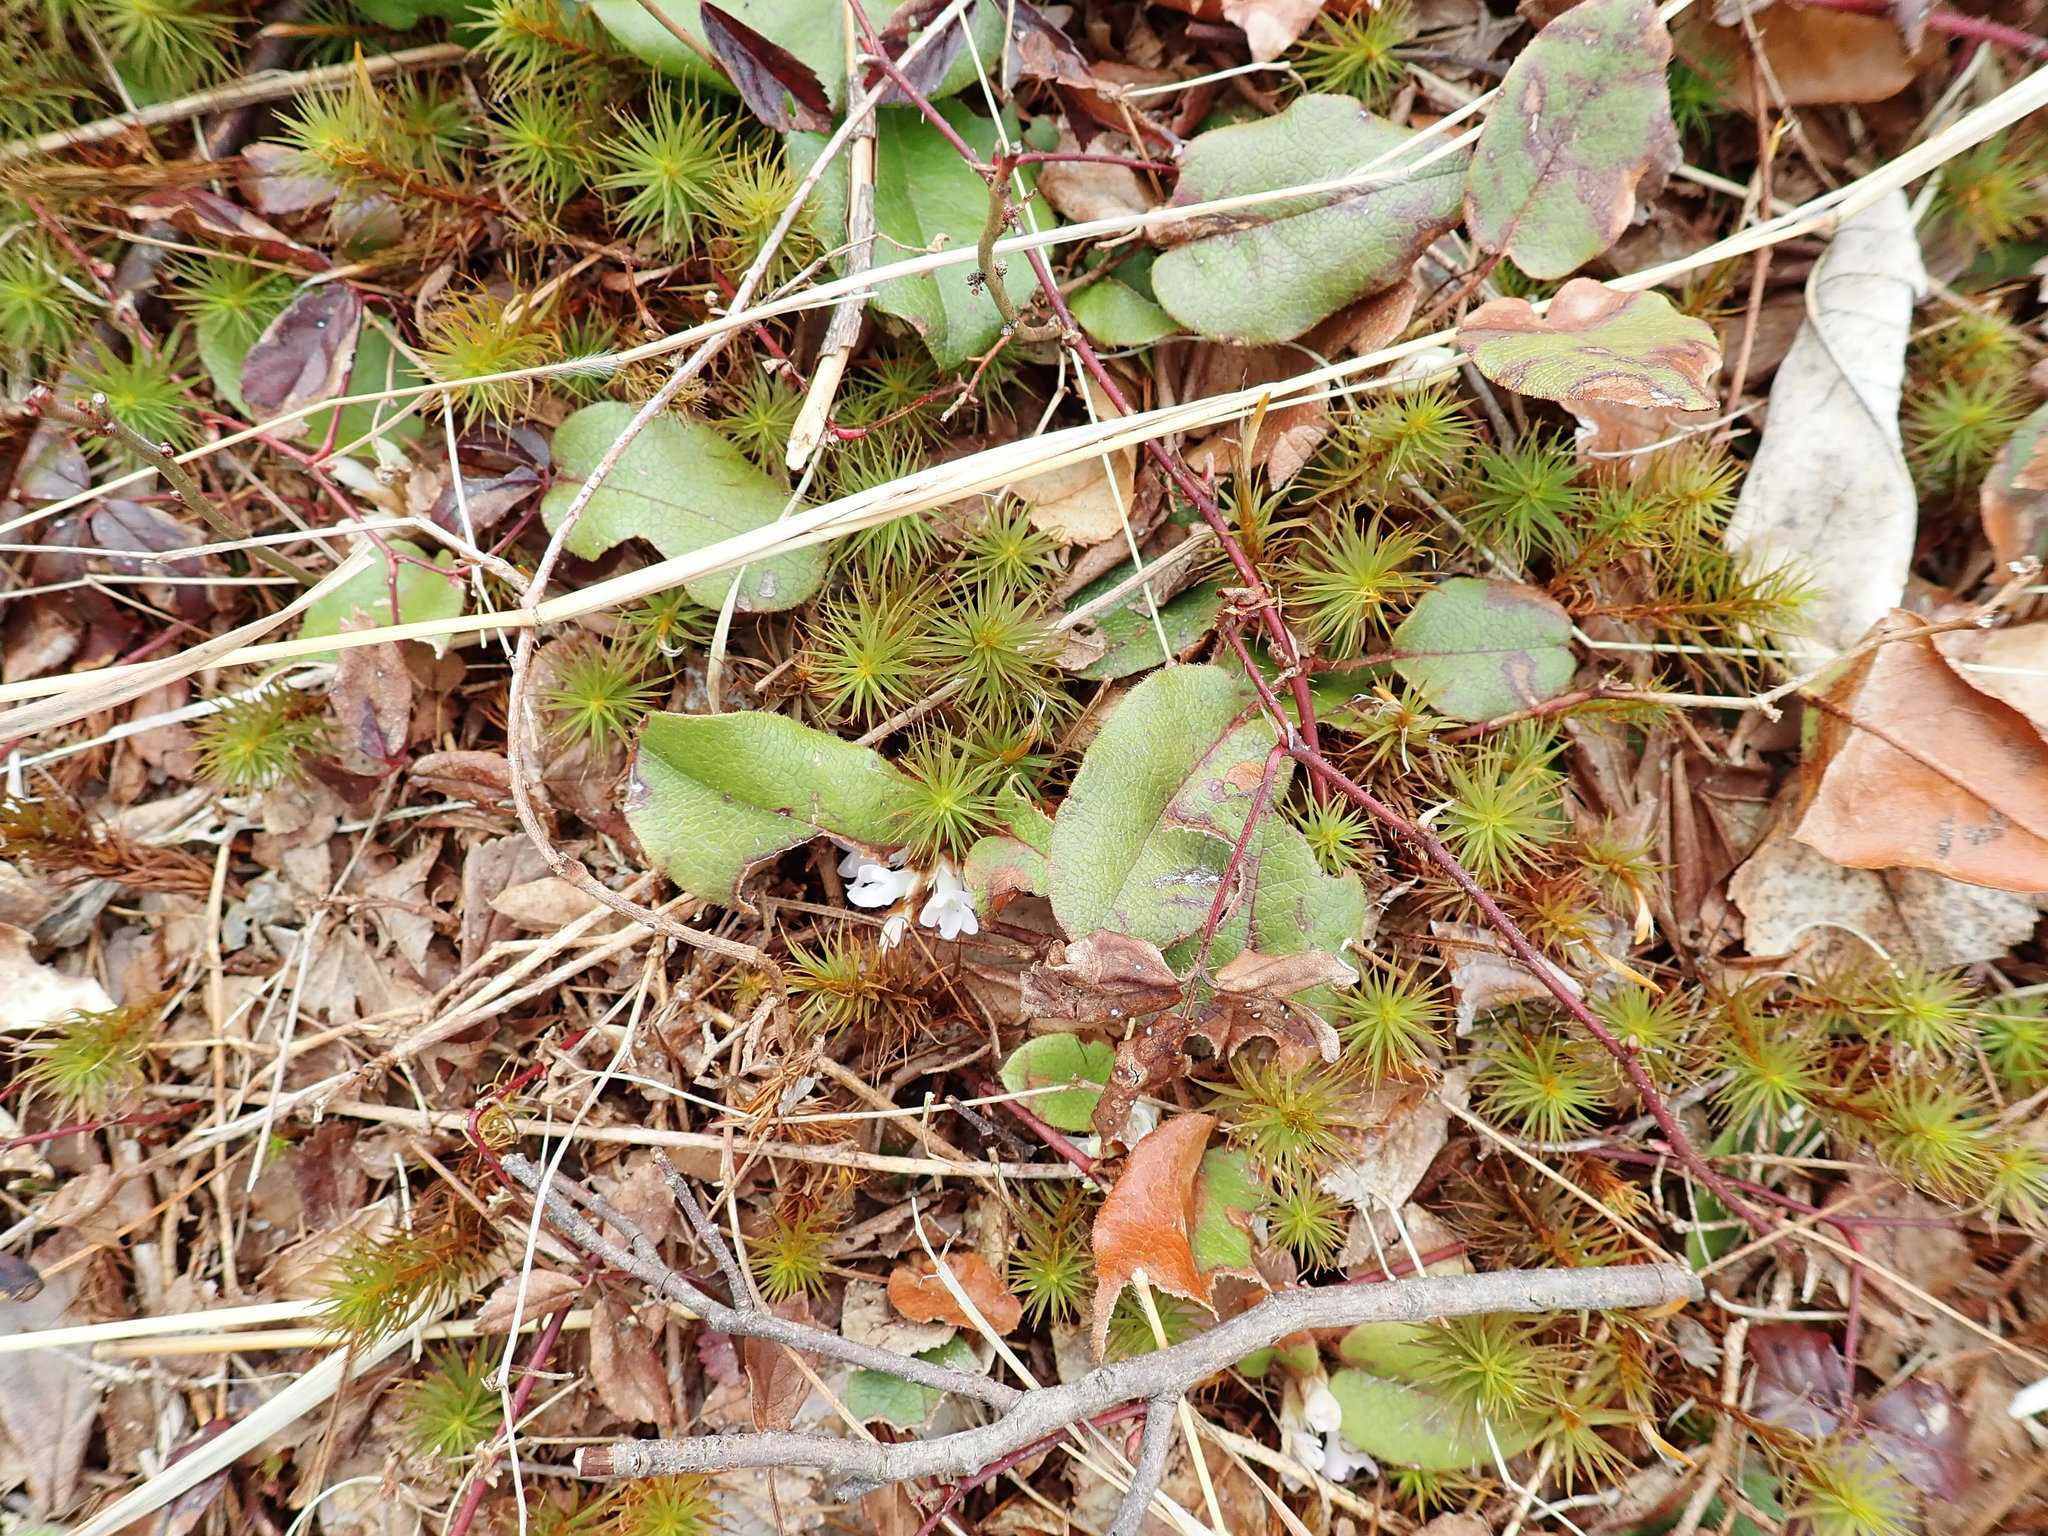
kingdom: Plantae
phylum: Tracheophyta
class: Magnoliopsida
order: Ericales
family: Ericaceae
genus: Epigaea
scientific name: Epigaea repens
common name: Gravelroot
